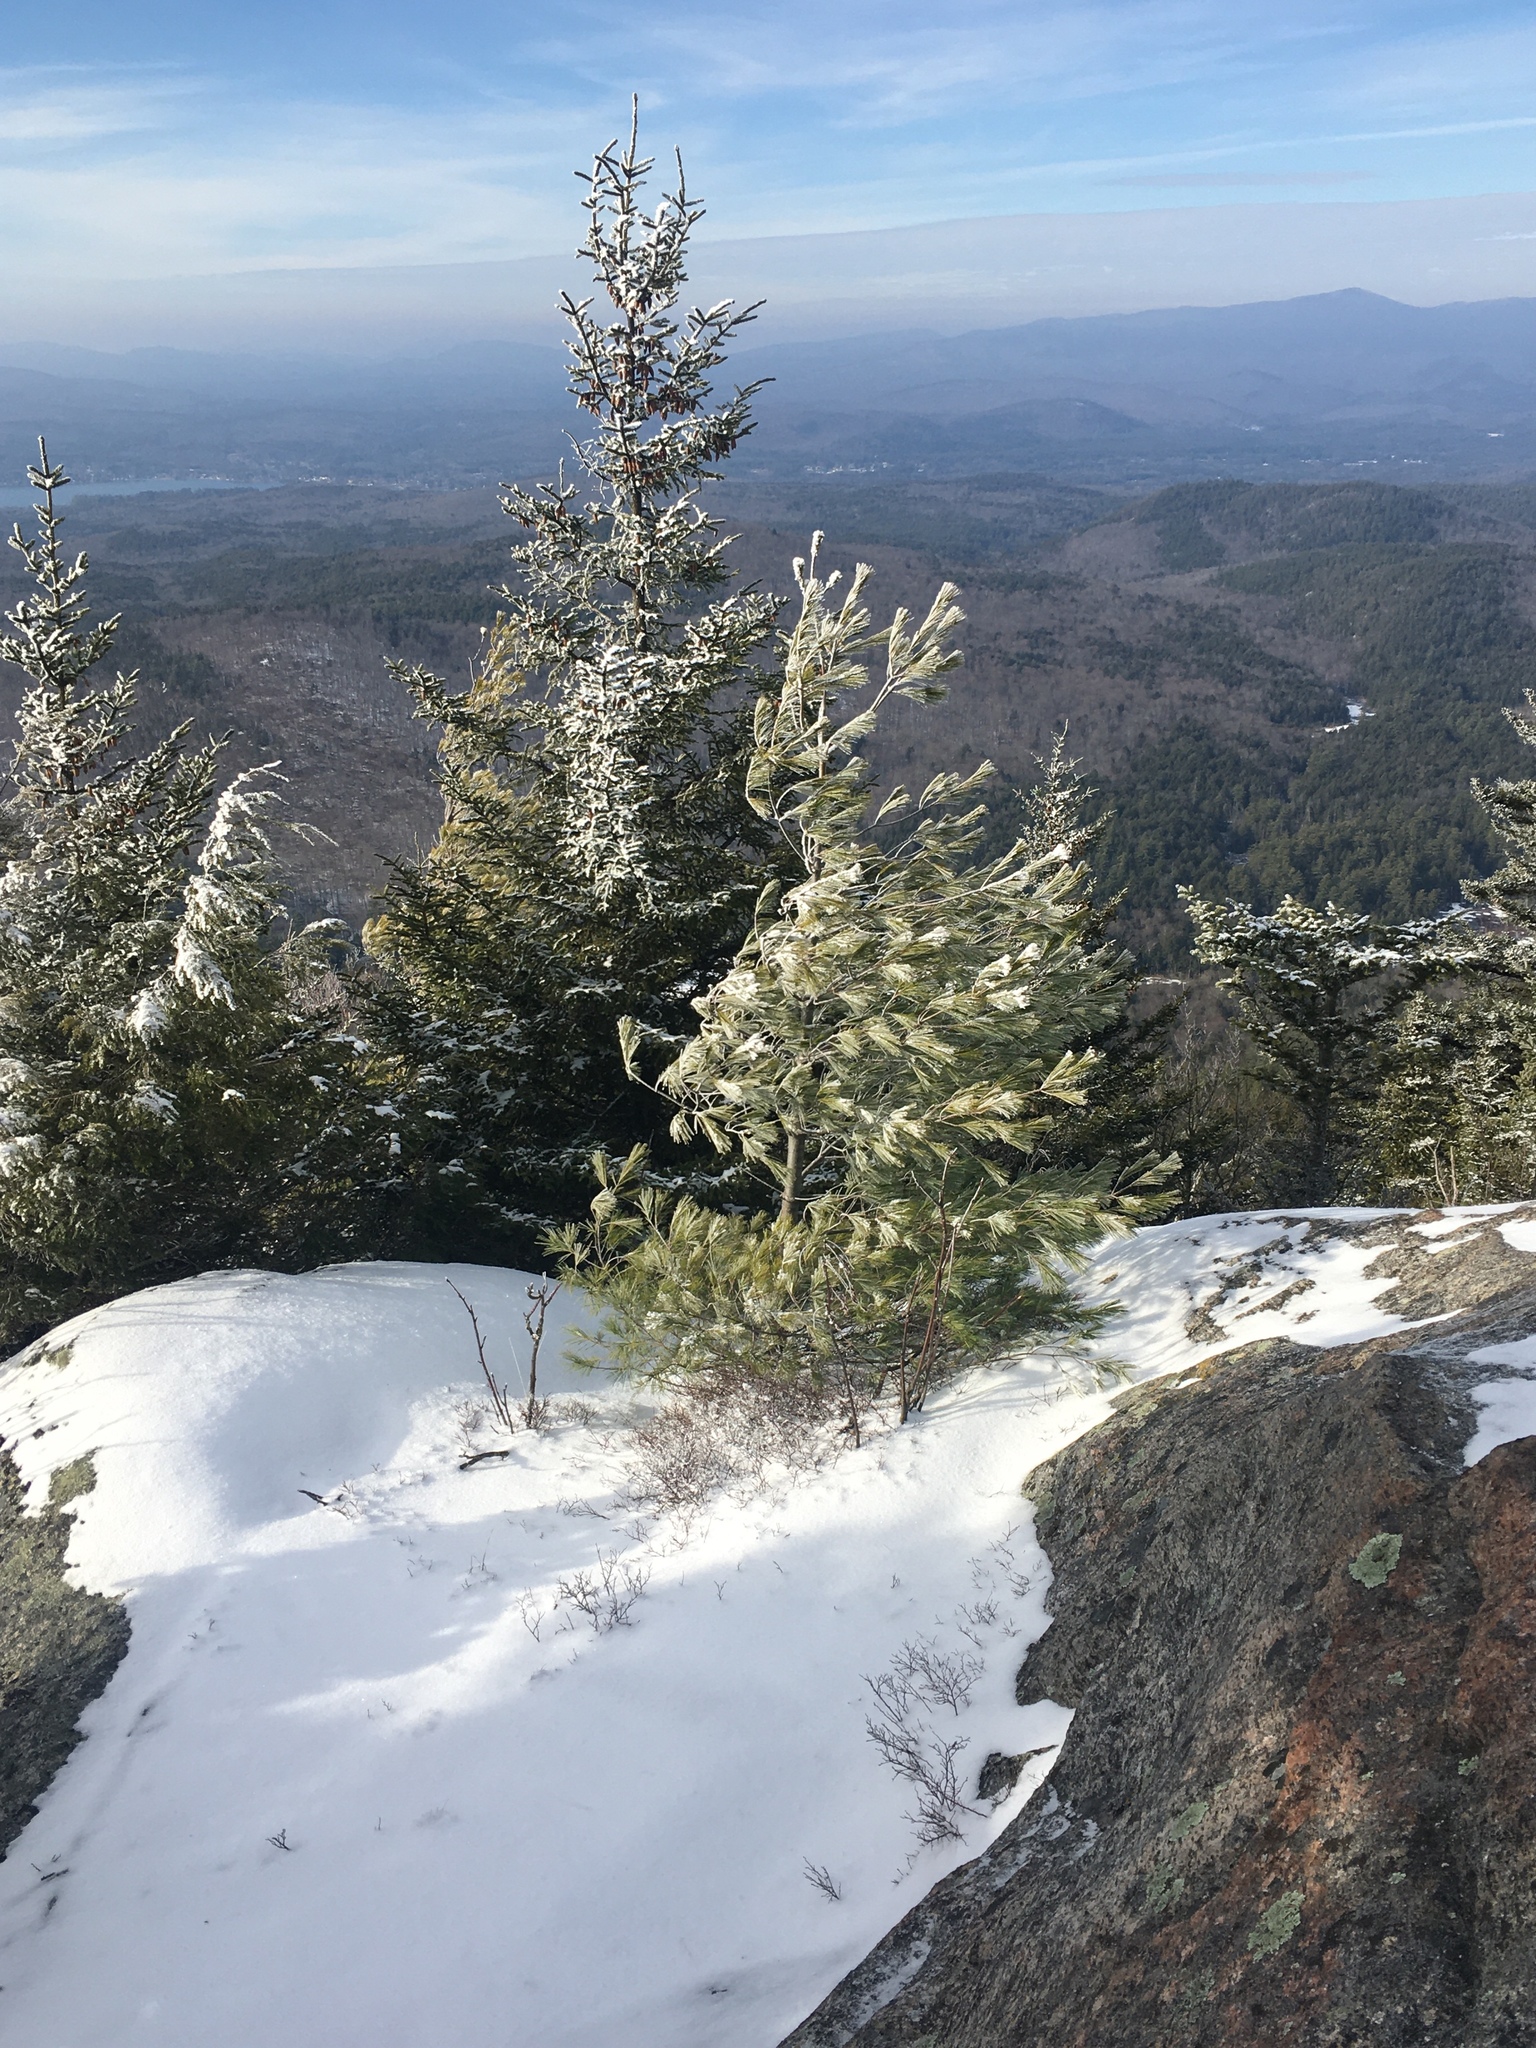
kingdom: Plantae
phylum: Tracheophyta
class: Pinopsida
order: Pinales
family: Pinaceae
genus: Pinus
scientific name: Pinus strobus
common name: Weymouth pine
